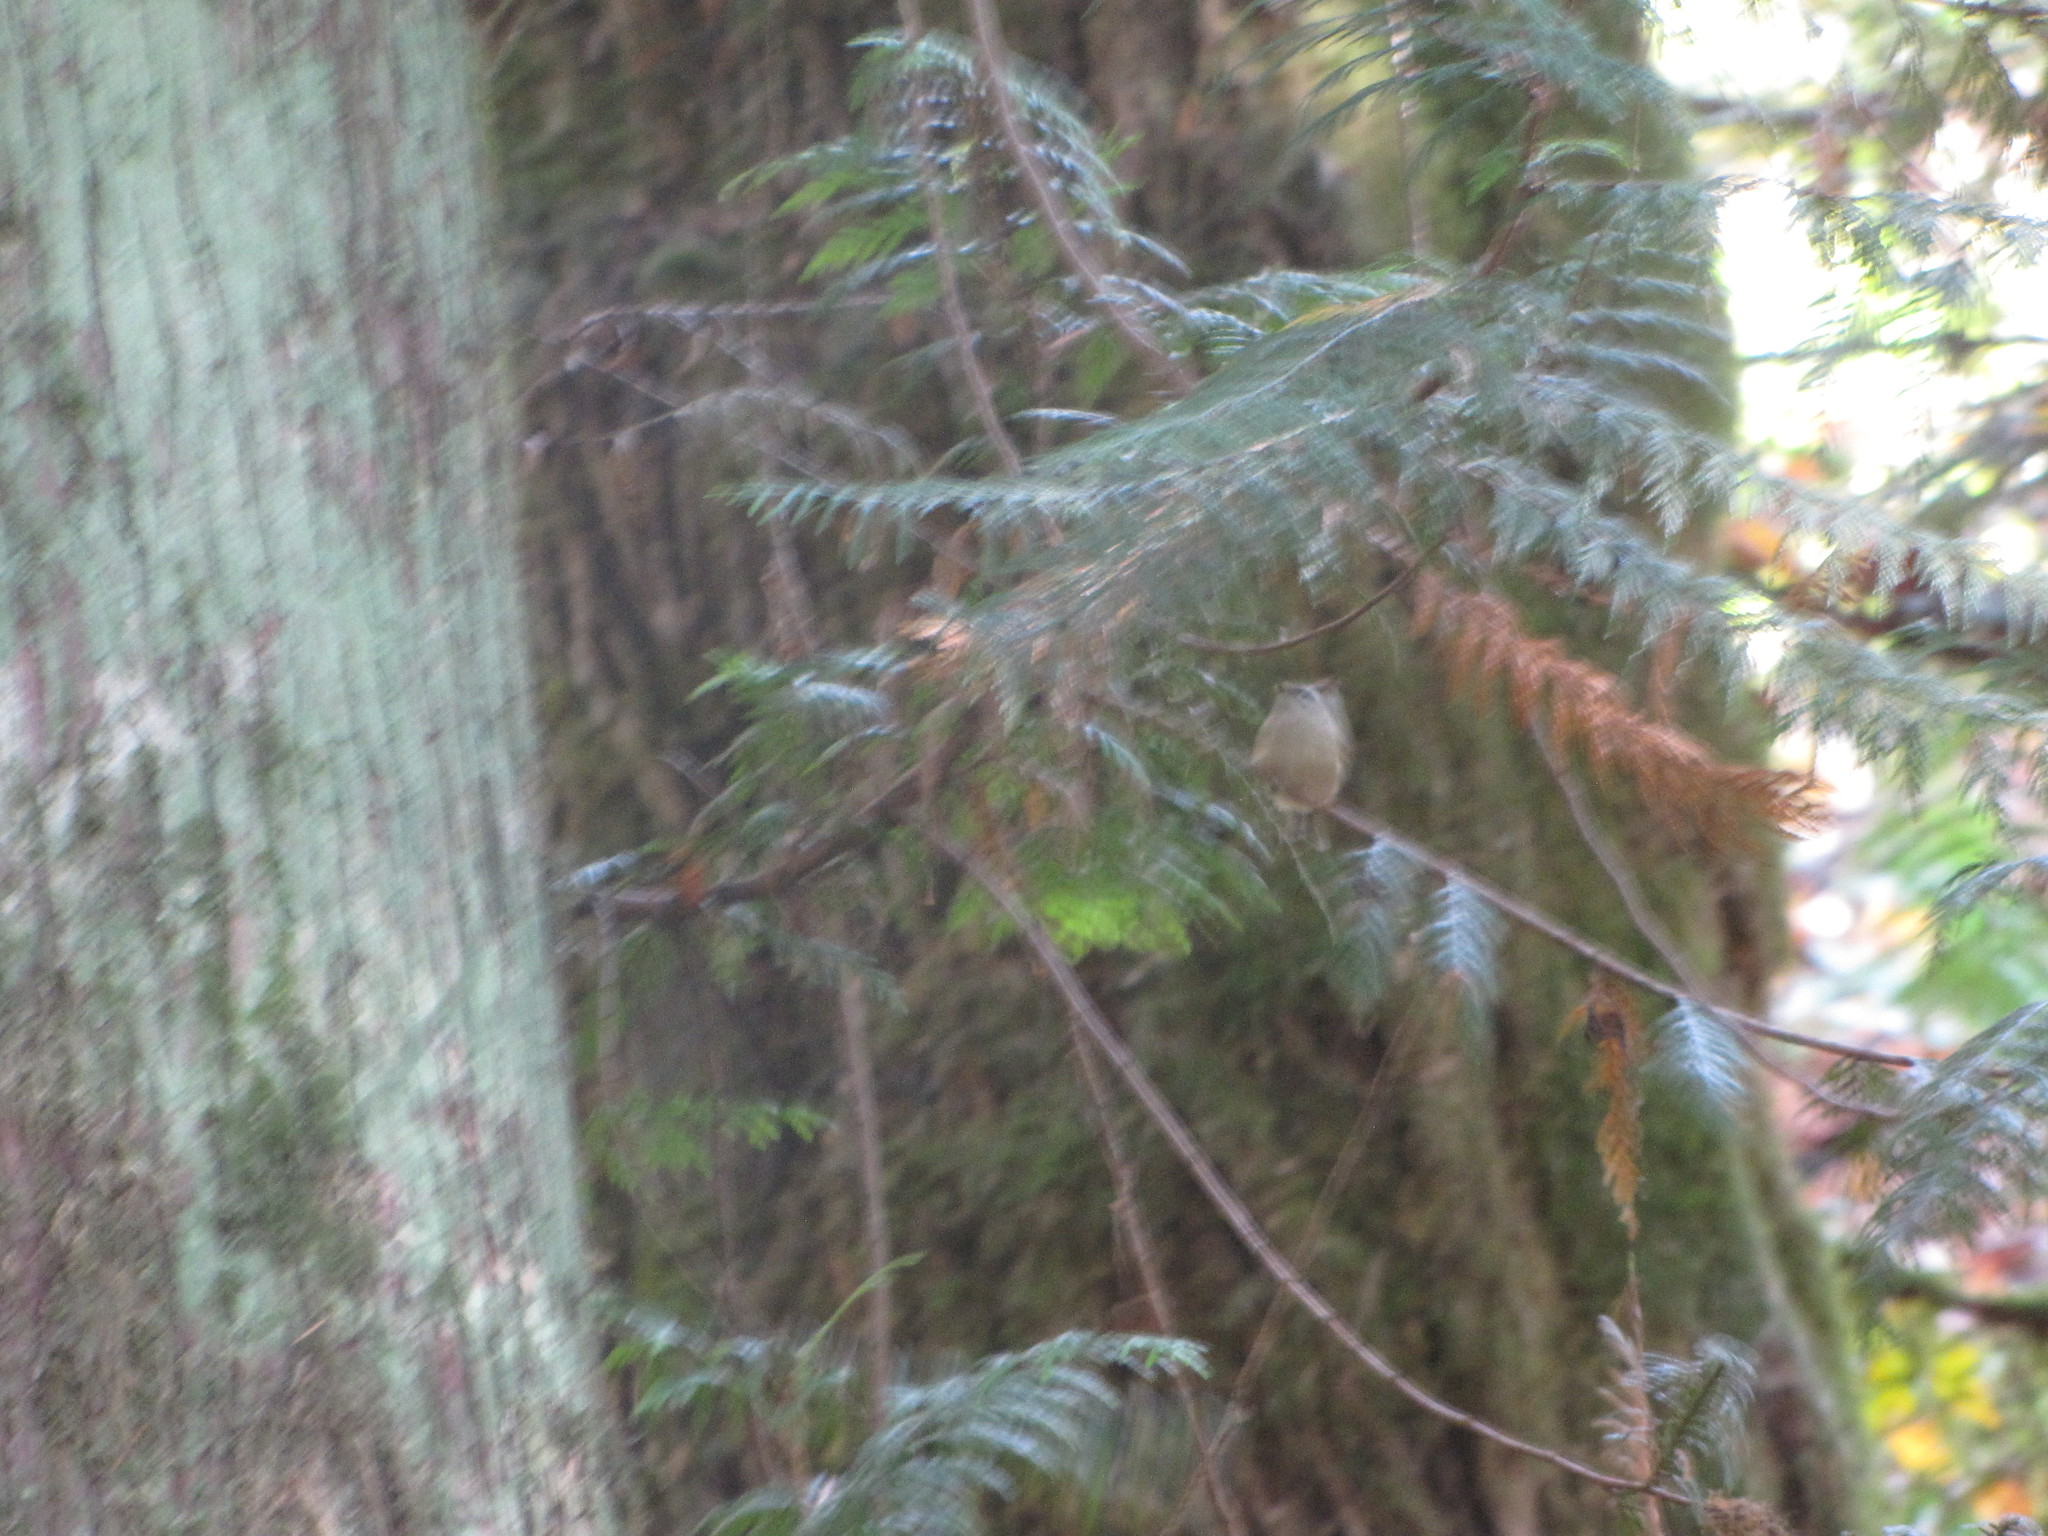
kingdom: Animalia
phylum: Chordata
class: Aves
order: Passeriformes
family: Regulidae
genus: Regulus
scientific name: Regulus satrapa
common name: Golden-crowned kinglet
